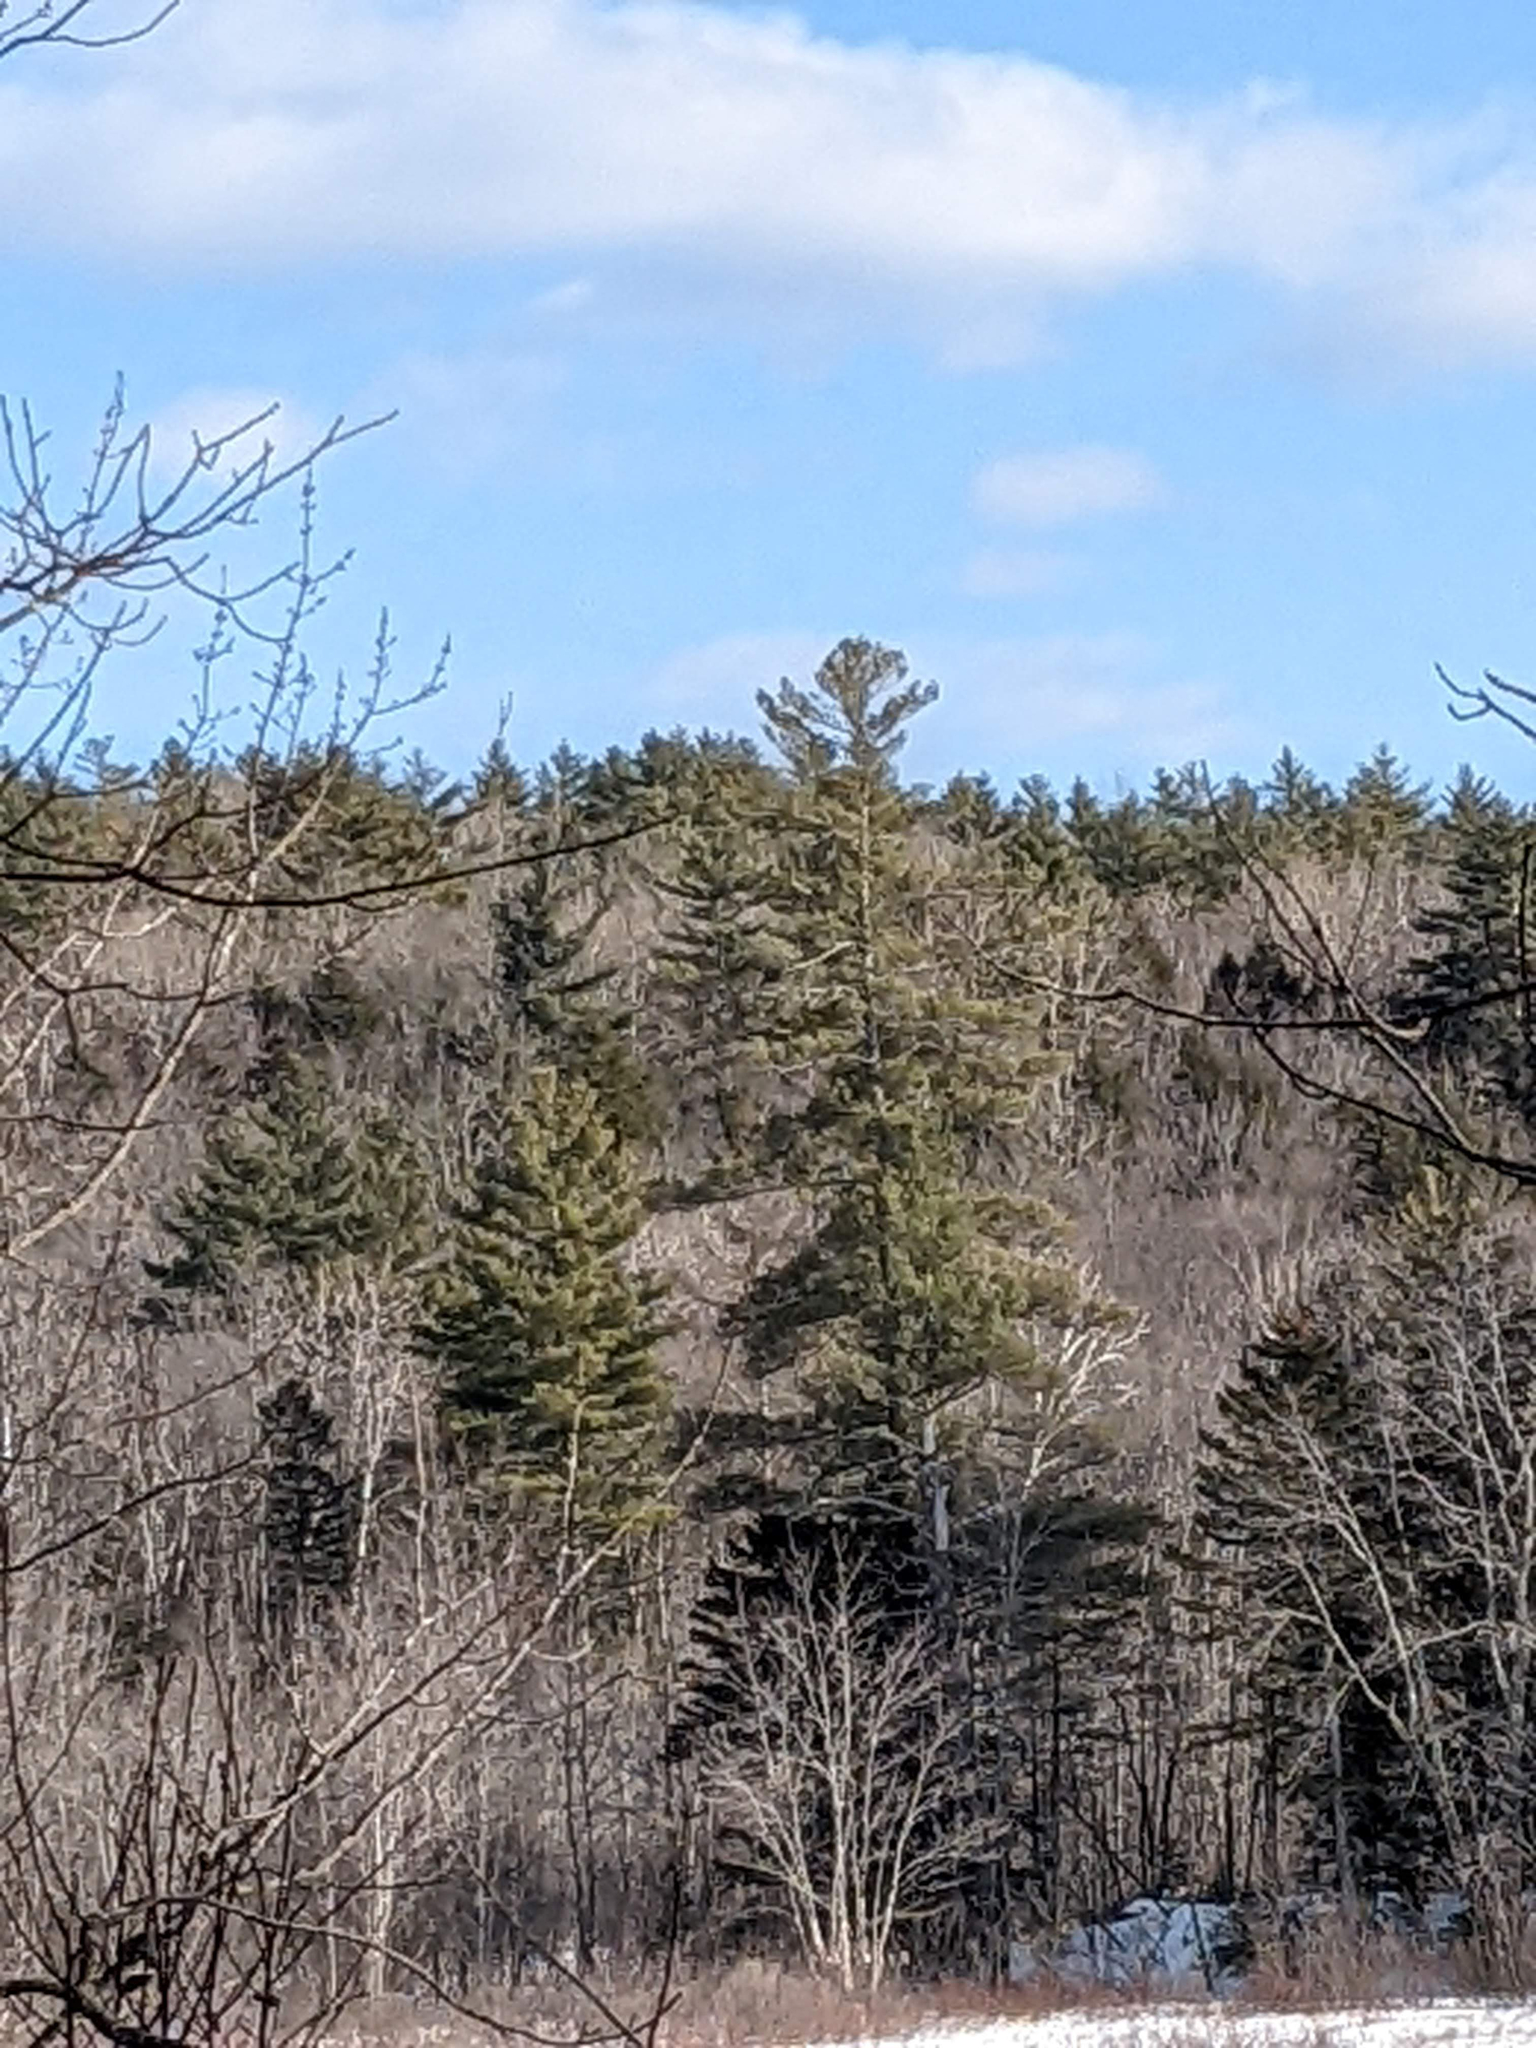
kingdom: Plantae
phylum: Tracheophyta
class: Pinopsida
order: Pinales
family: Pinaceae
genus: Pinus
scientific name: Pinus strobus
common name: Weymouth pine
